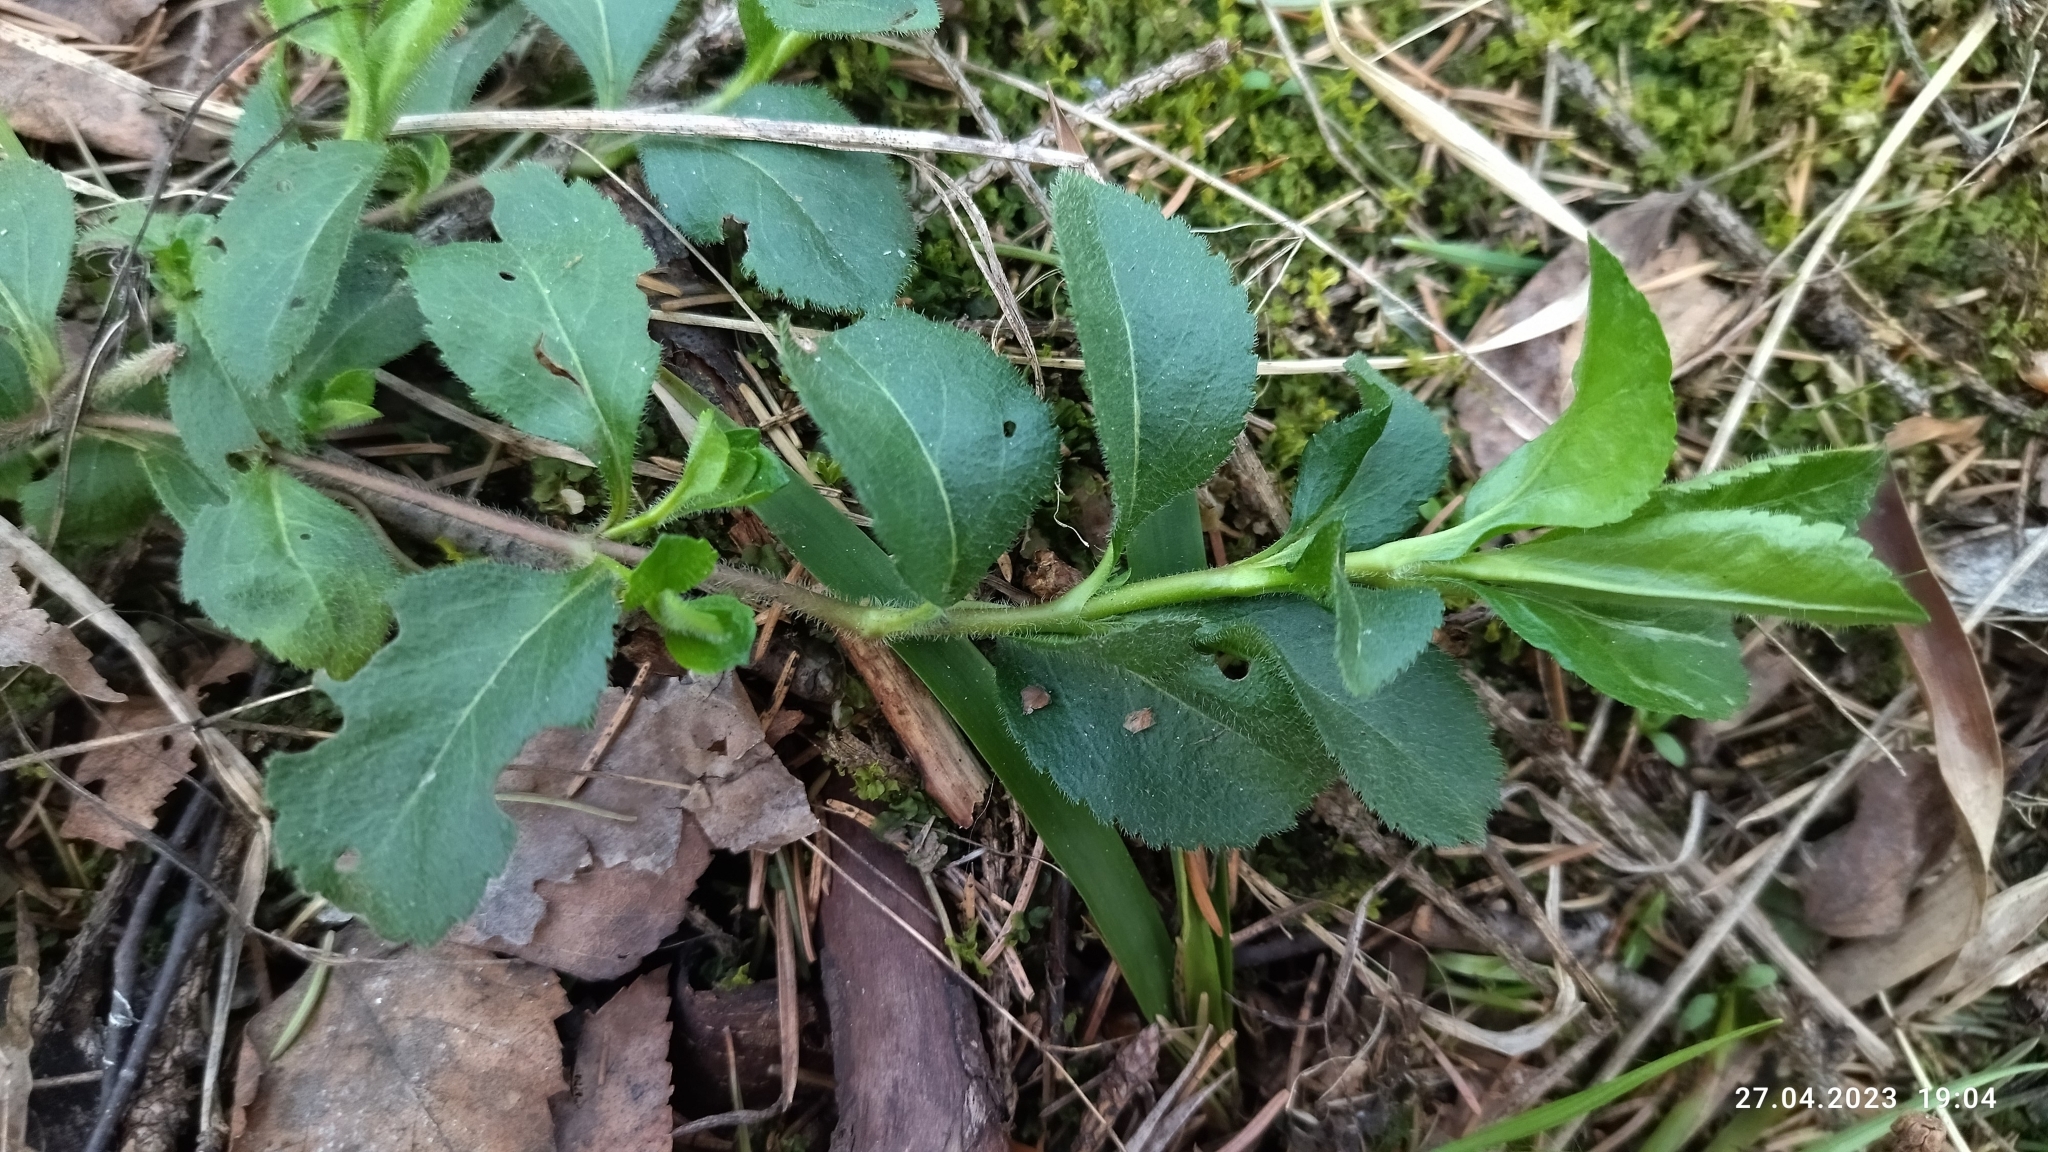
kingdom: Plantae
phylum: Tracheophyta
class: Magnoliopsida
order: Lamiales
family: Plantaginaceae
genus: Veronica
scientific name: Veronica officinalis
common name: Common speedwell
